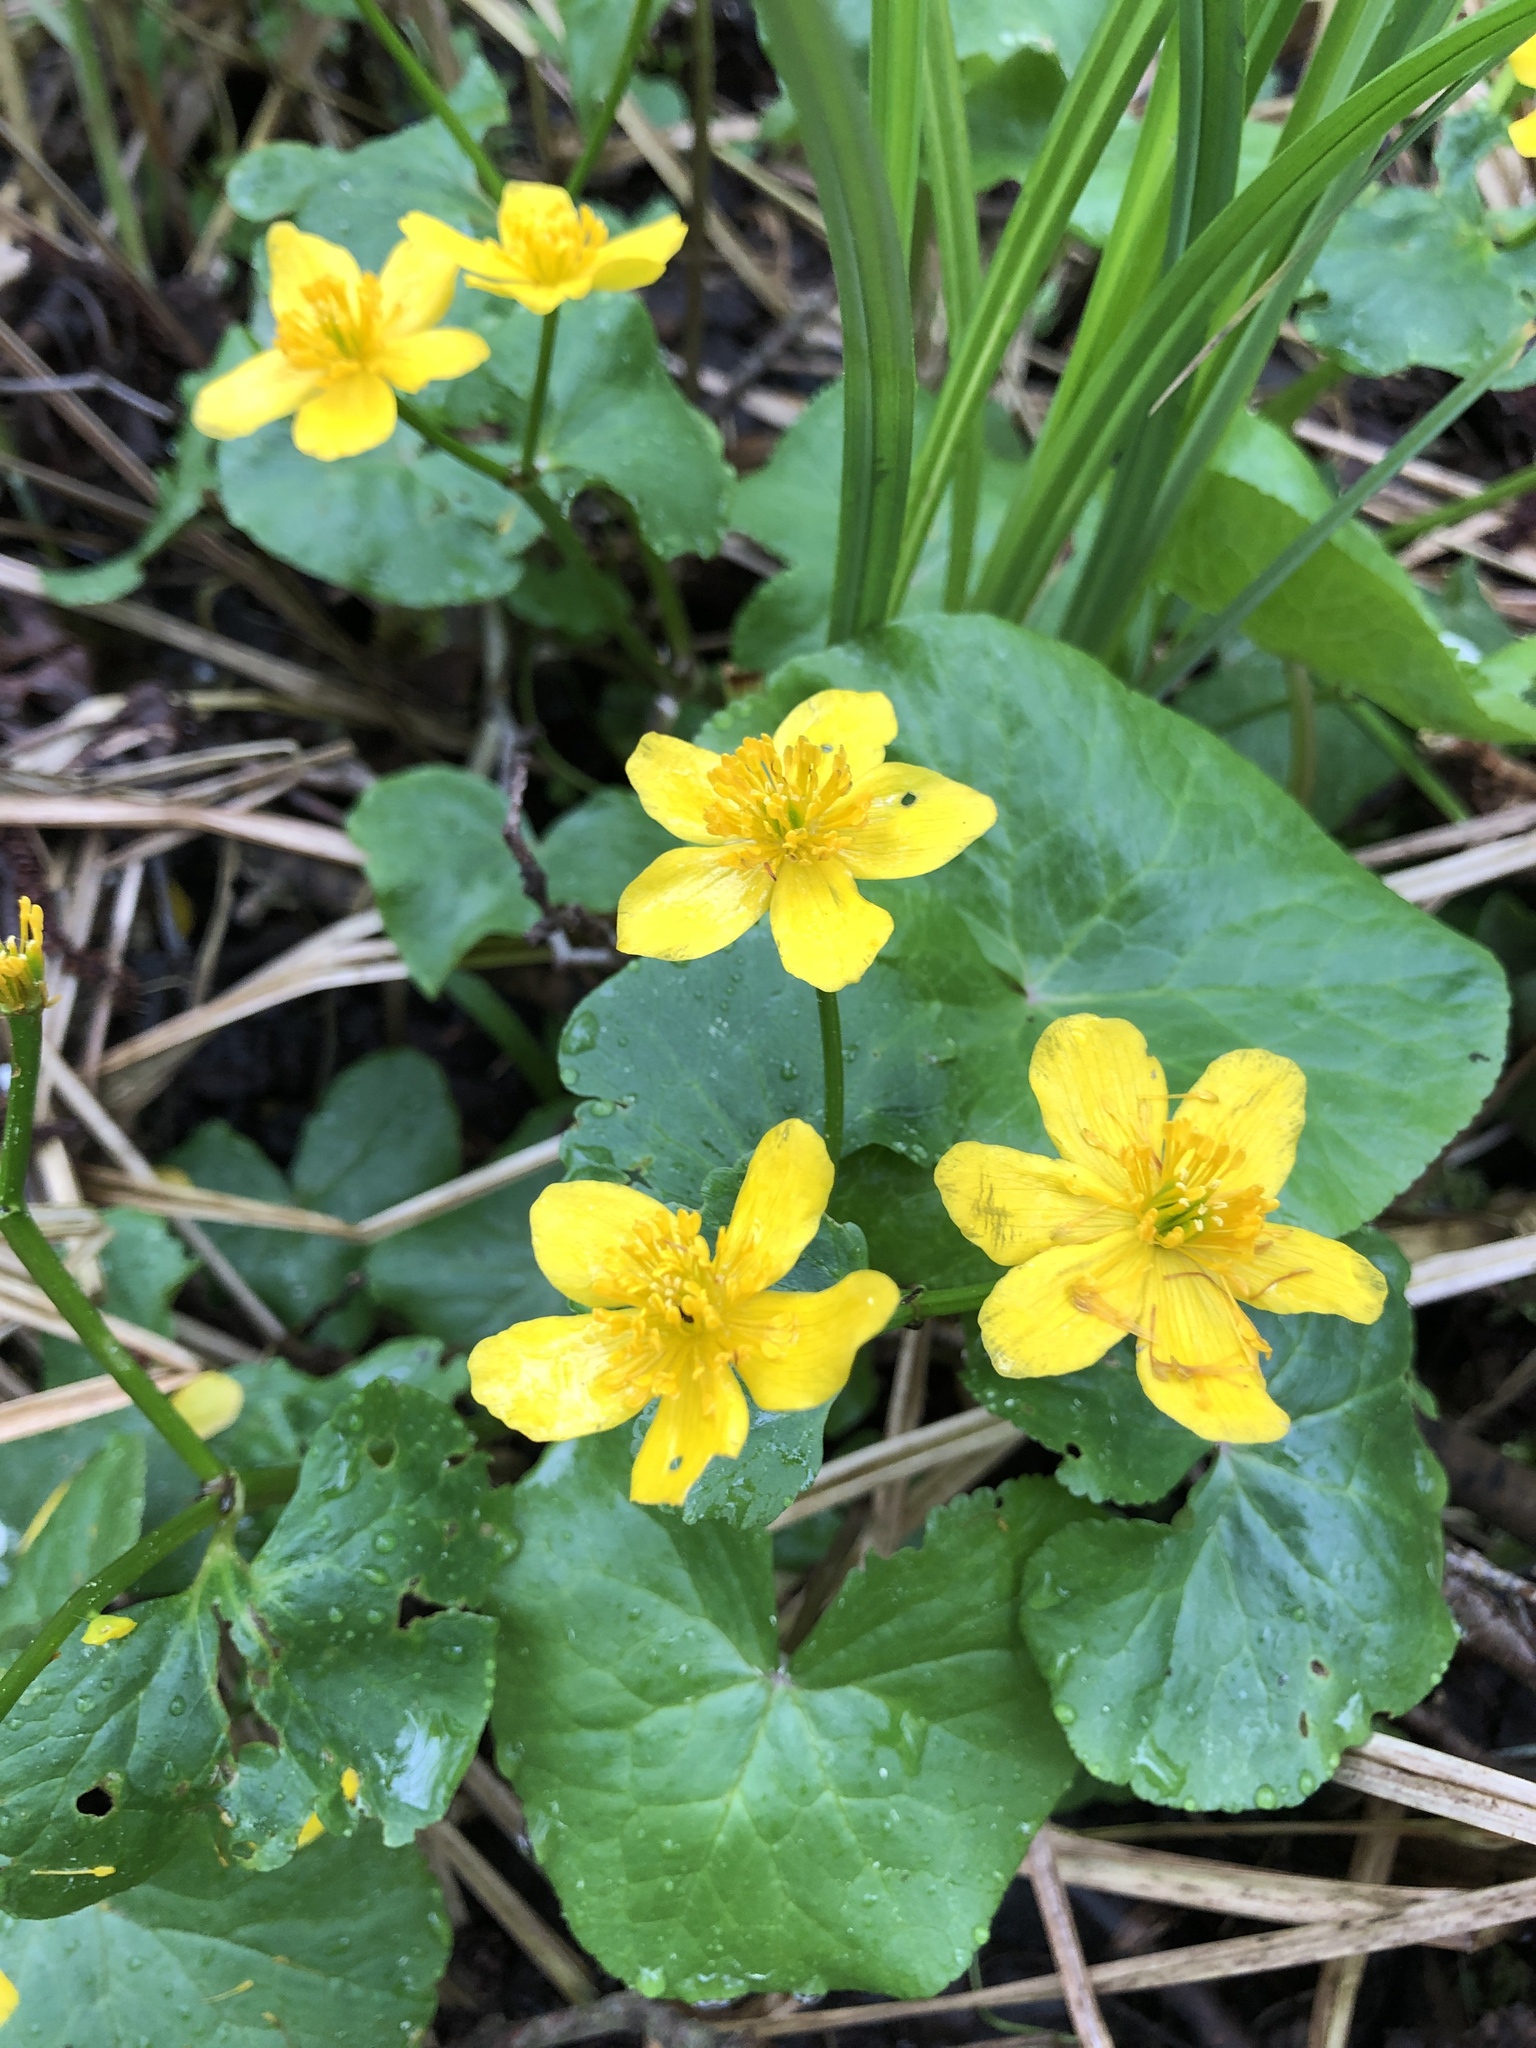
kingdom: Plantae
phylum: Tracheophyta
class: Magnoliopsida
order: Ranunculales
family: Ranunculaceae
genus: Caltha
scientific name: Caltha palustris
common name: Marsh marigold
